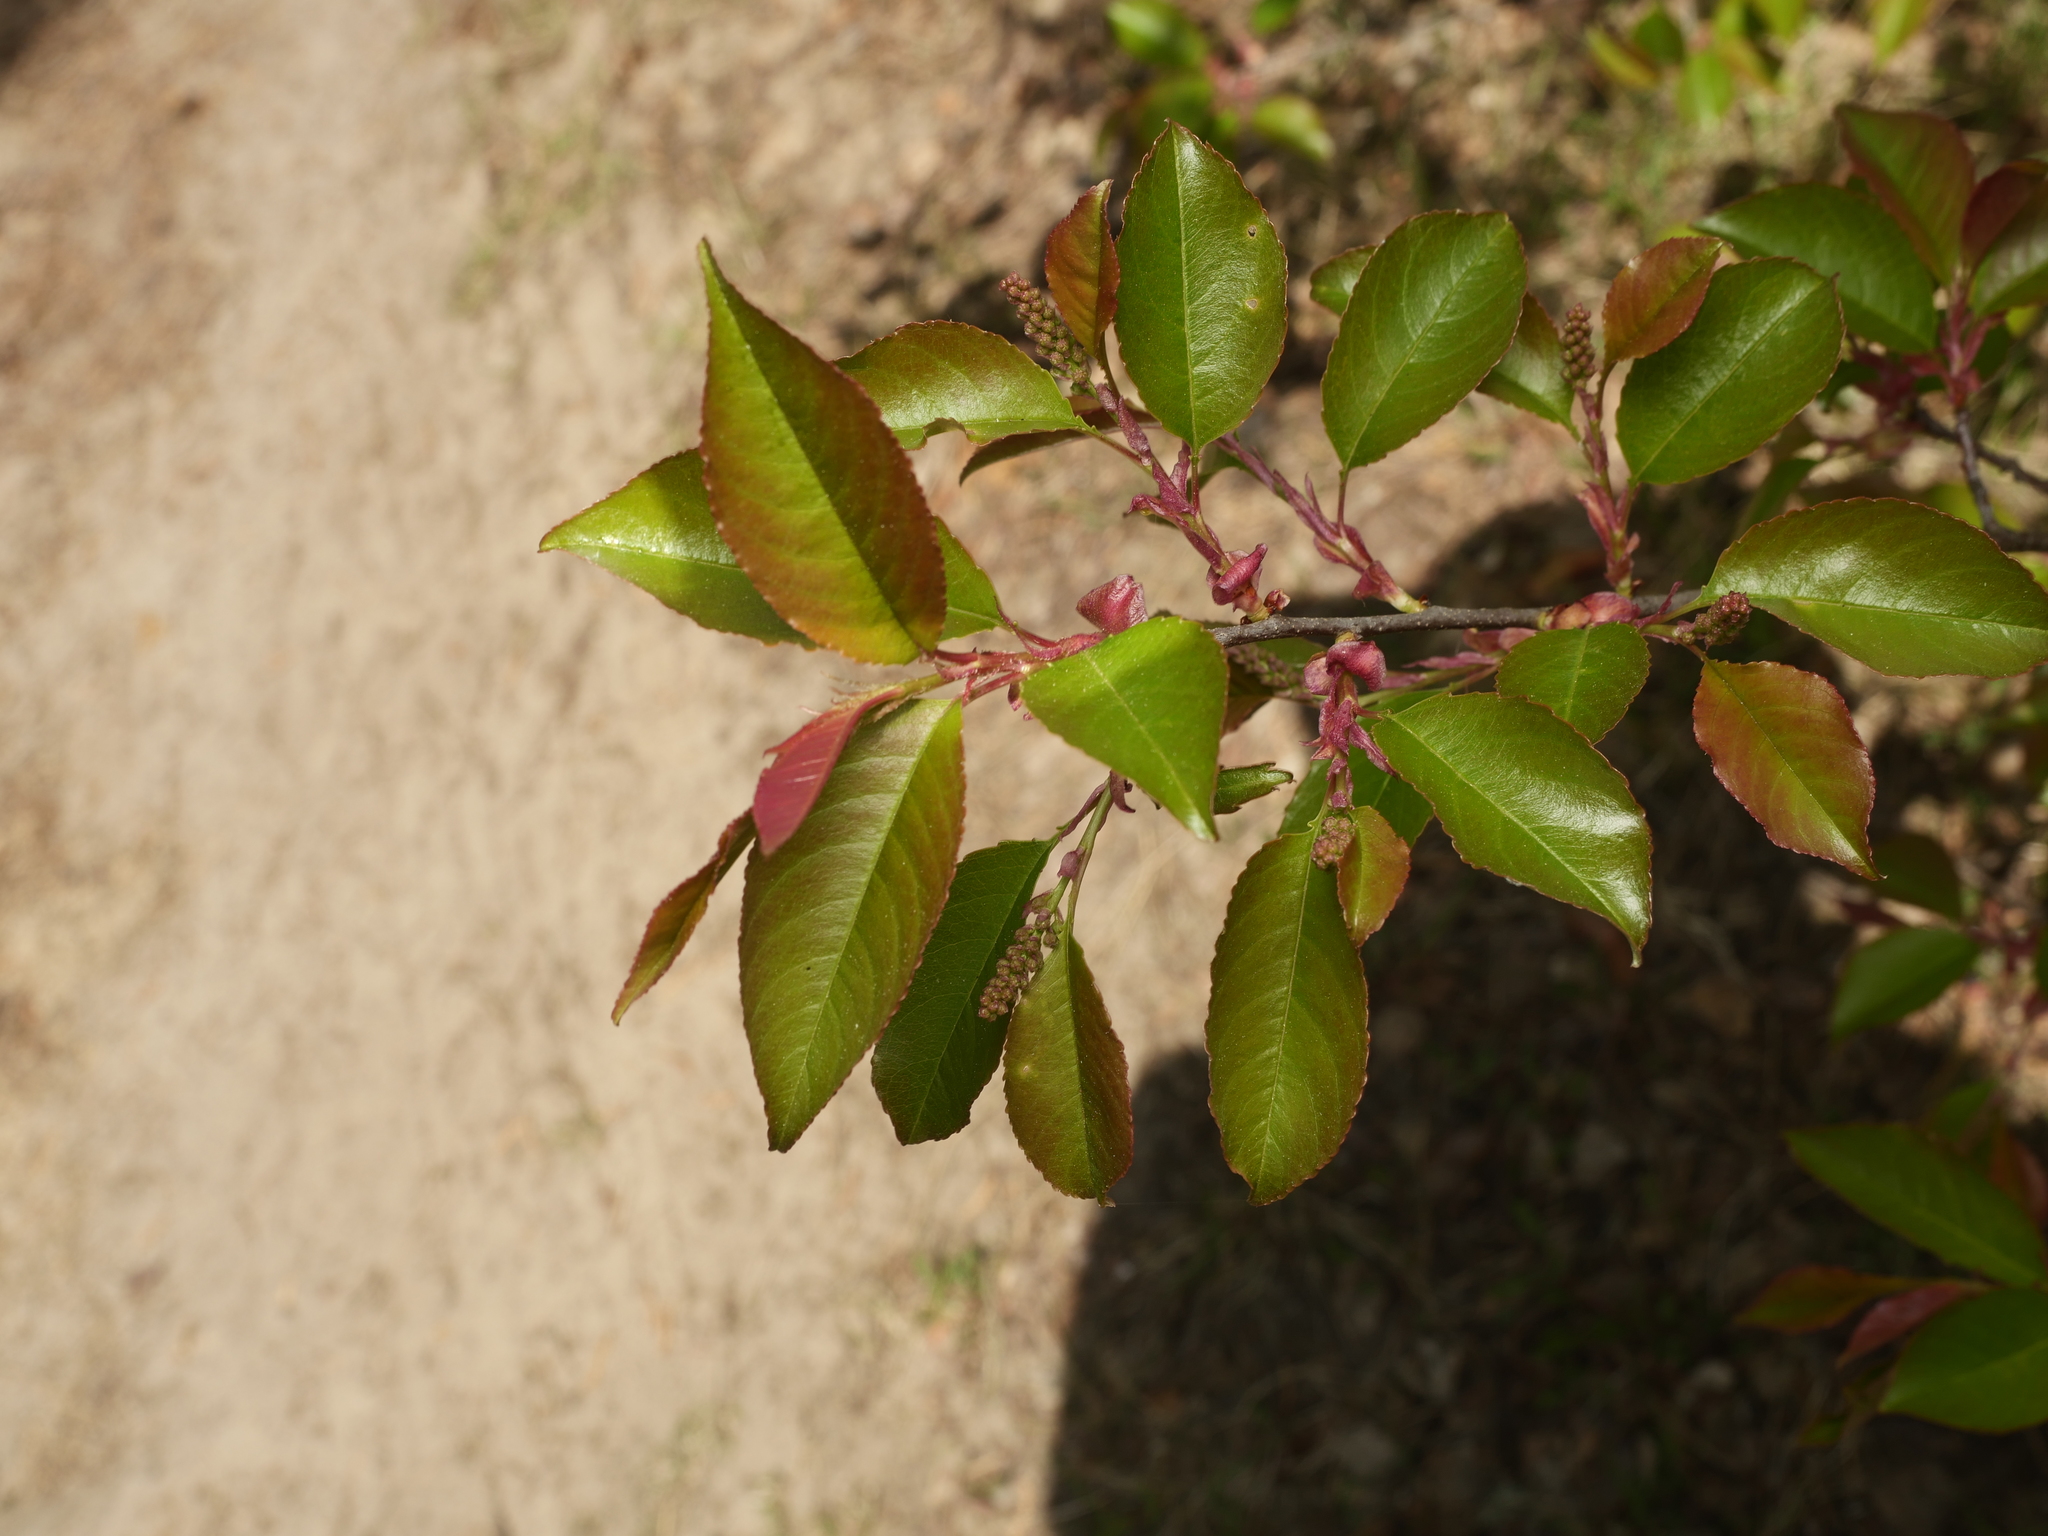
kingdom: Plantae
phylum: Tracheophyta
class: Magnoliopsida
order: Rosales
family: Rosaceae
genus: Prunus
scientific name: Prunus serotina
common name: Black cherry
